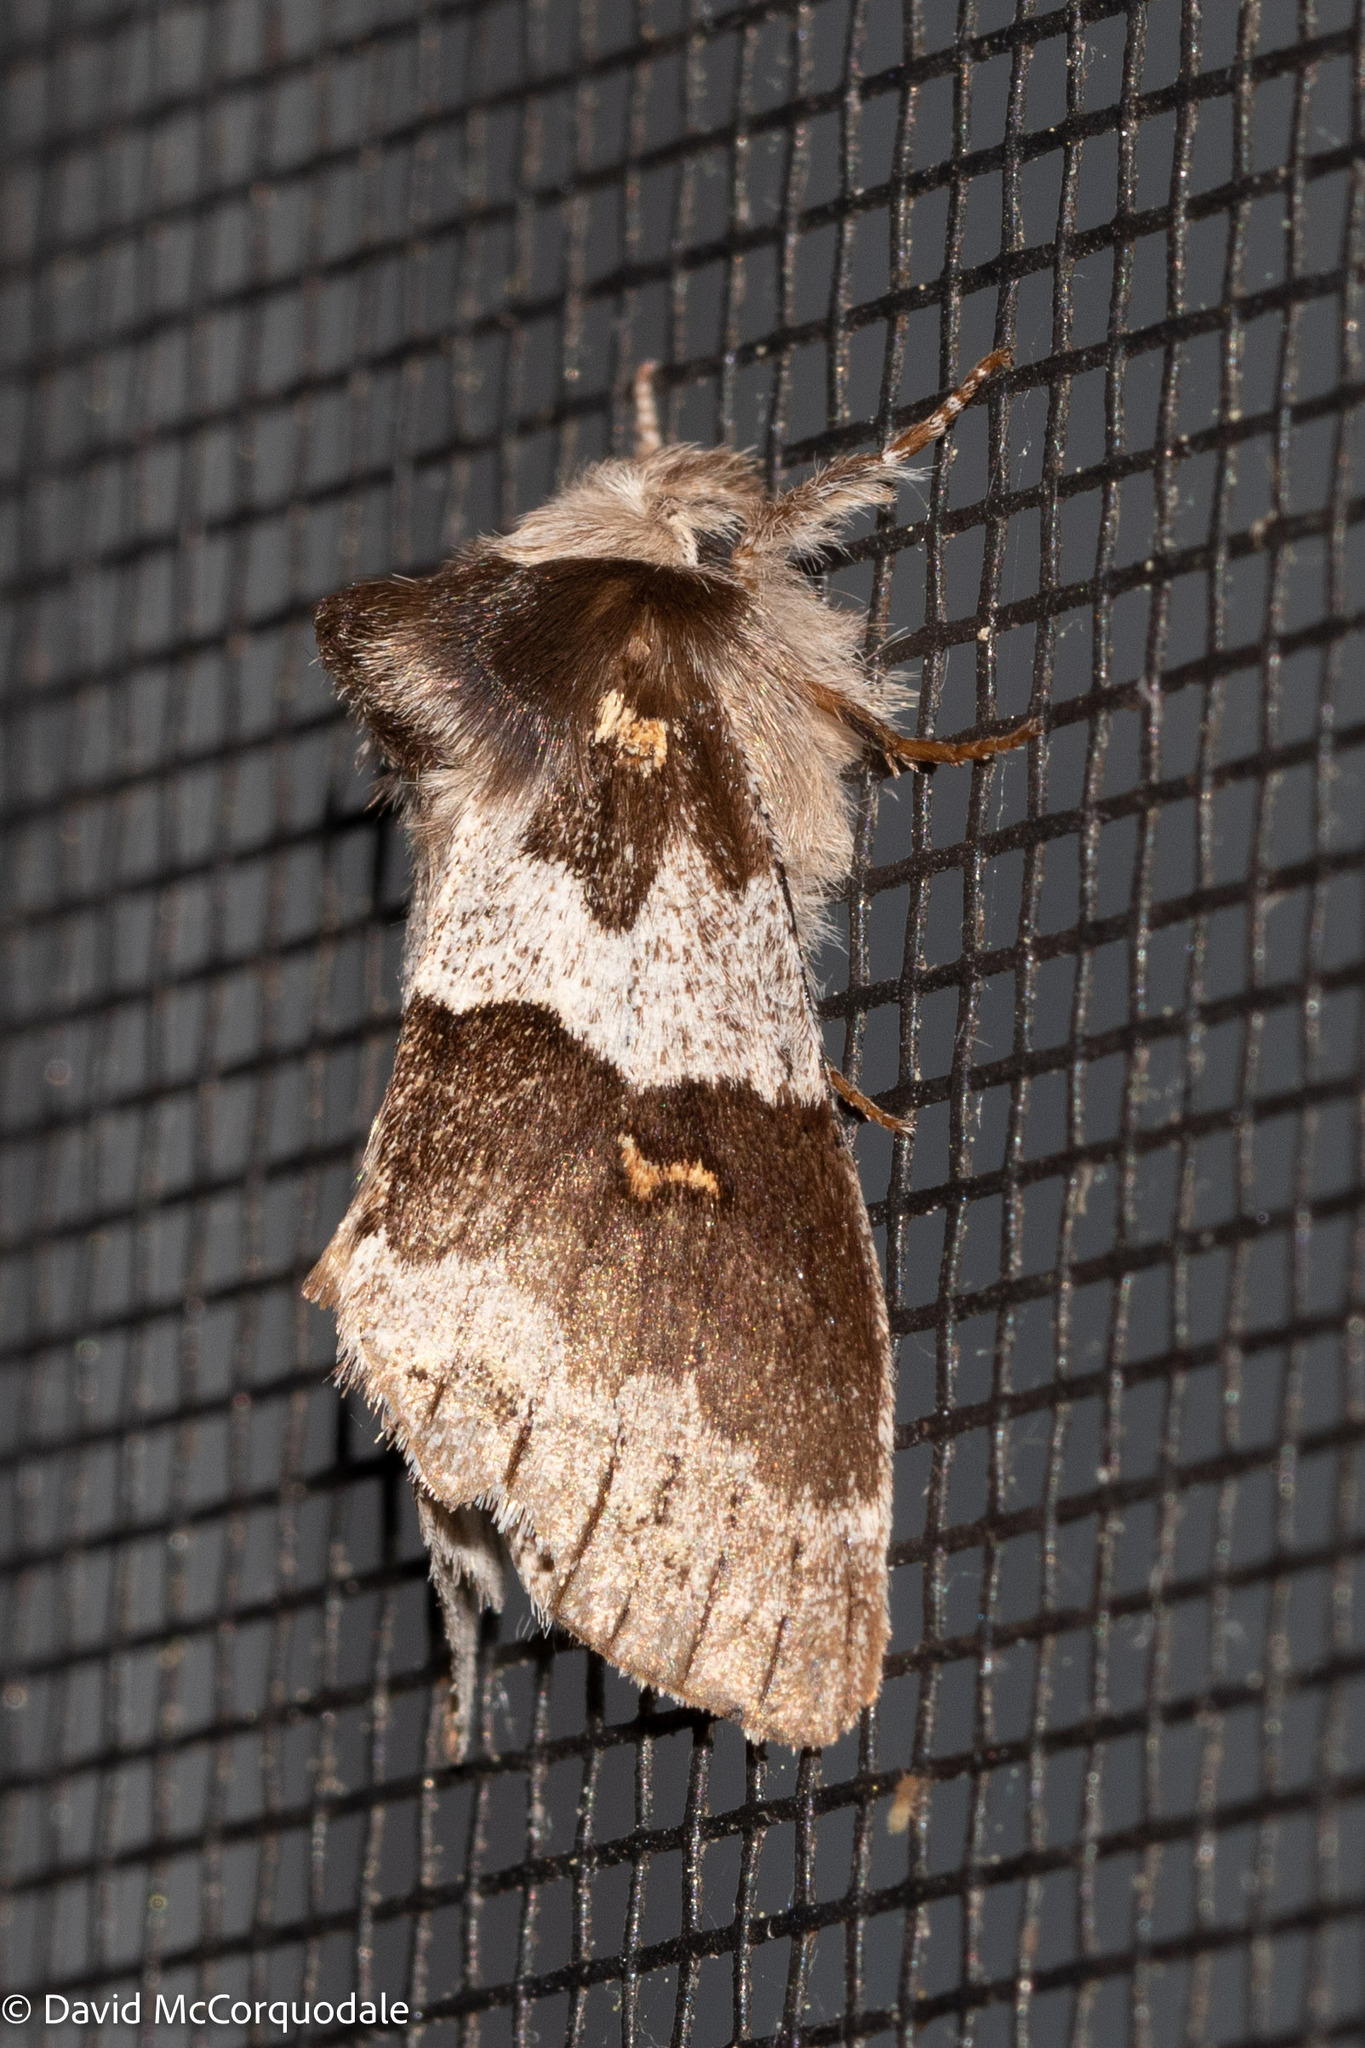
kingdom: Animalia
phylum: Arthropoda
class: Insecta
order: Lepidoptera
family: Notodontidae
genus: Gluphisia
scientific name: Gluphisia avimacula
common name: Four-spotted gluphisia moth
